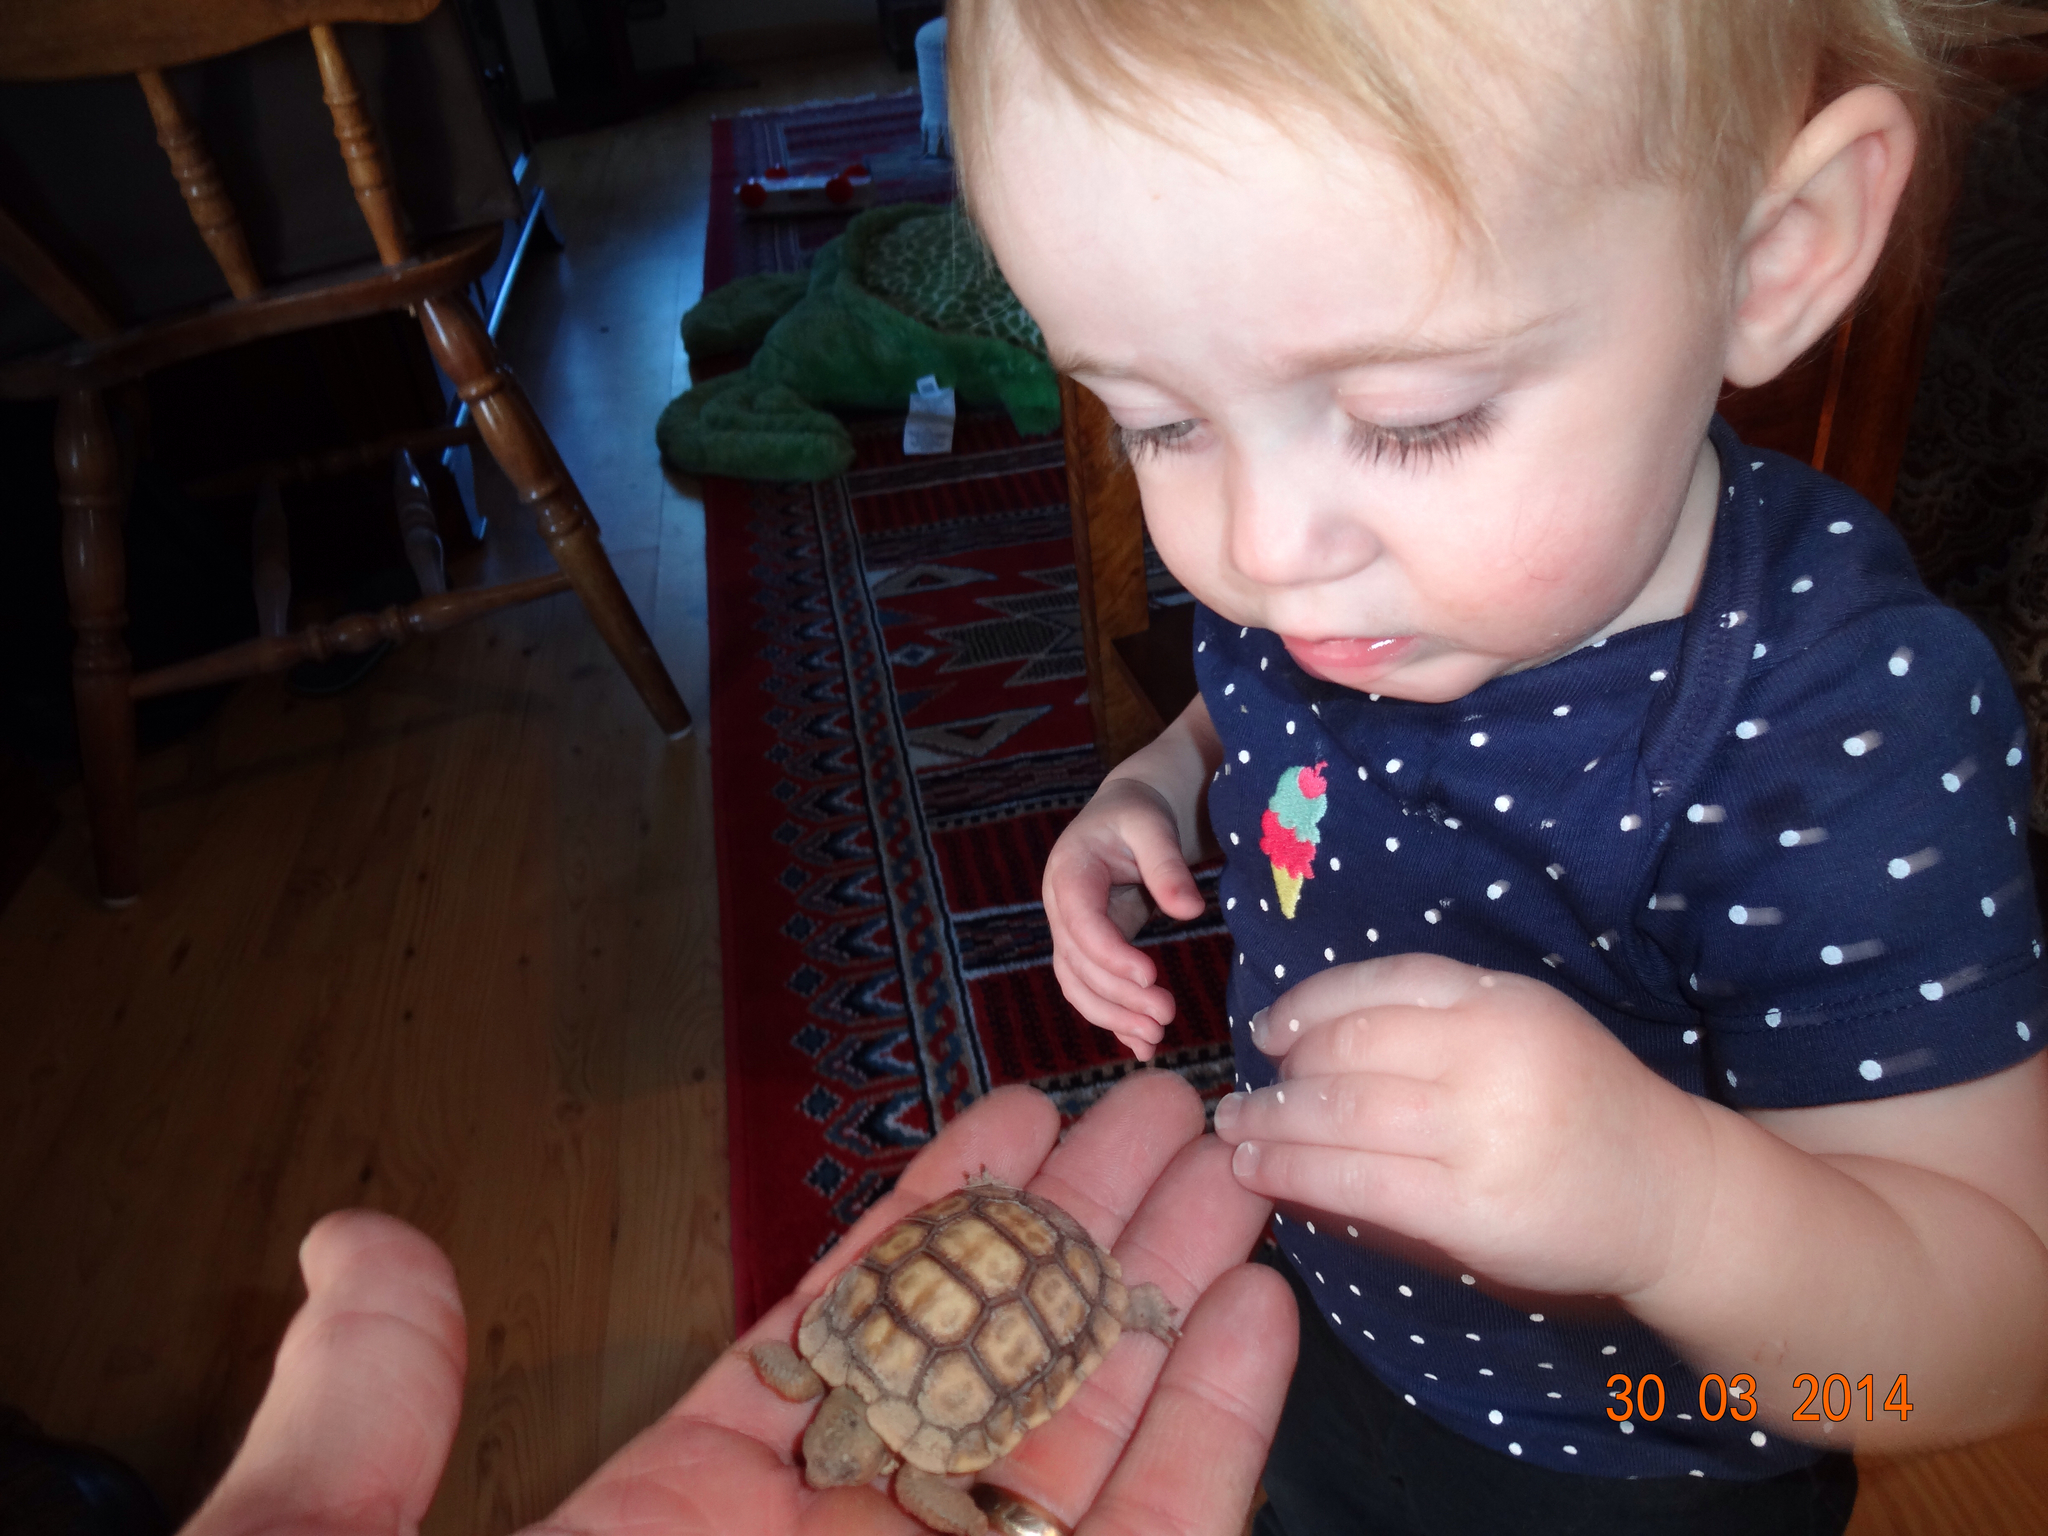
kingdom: Animalia
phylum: Chordata
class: Testudines
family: Testudinidae
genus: Gopherus
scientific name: Gopherus agassizii
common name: Mojave desert tortoise
